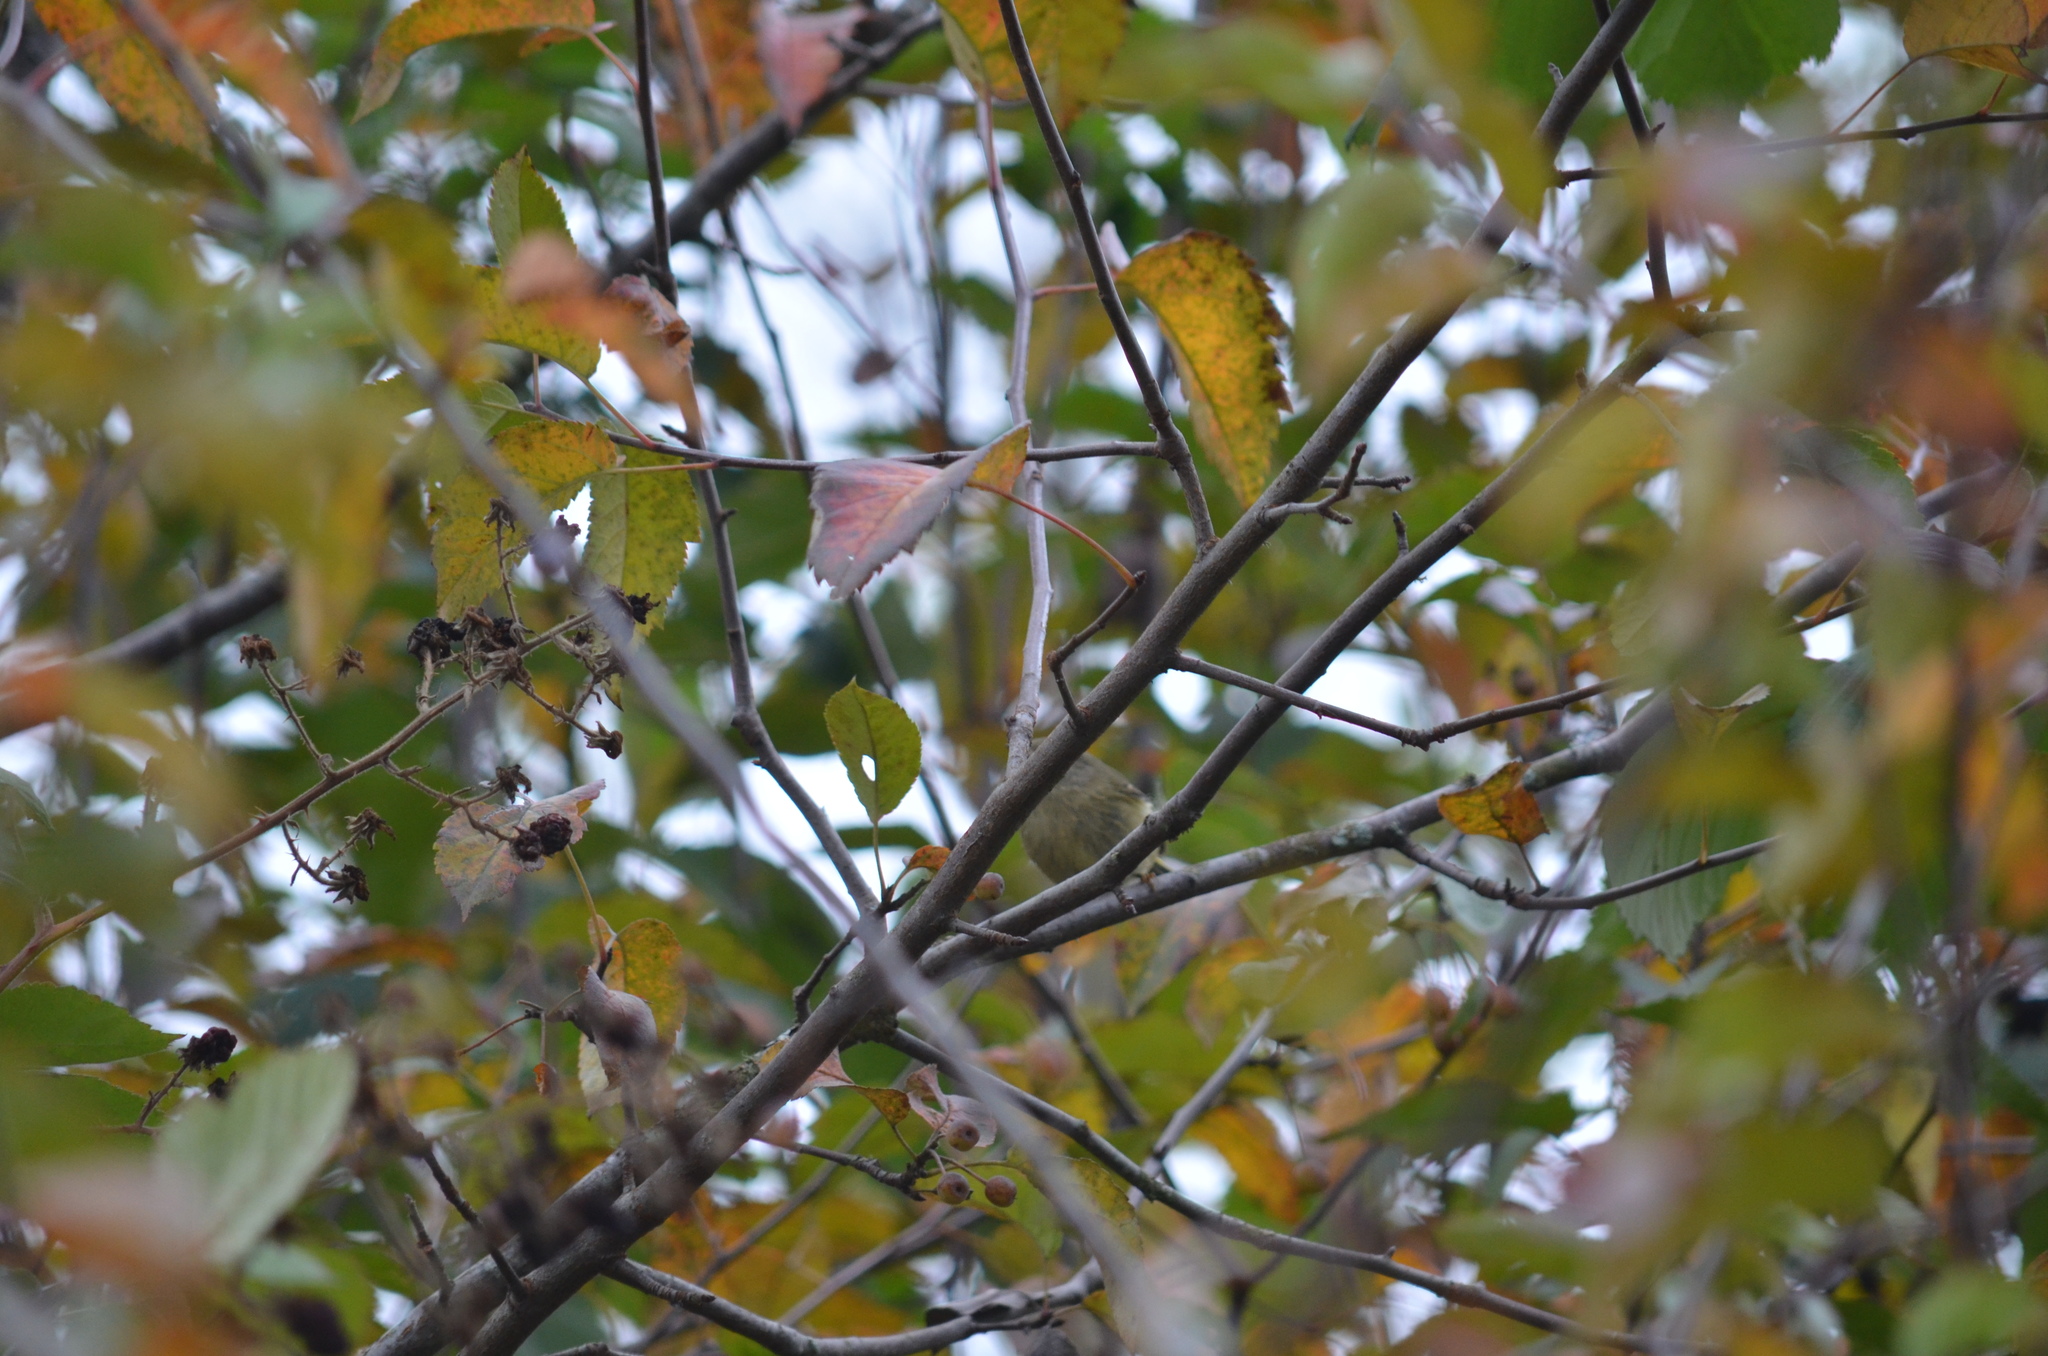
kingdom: Animalia
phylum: Chordata
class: Aves
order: Passeriformes
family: Regulidae
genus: Regulus
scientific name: Regulus calendula
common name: Ruby-crowned kinglet
